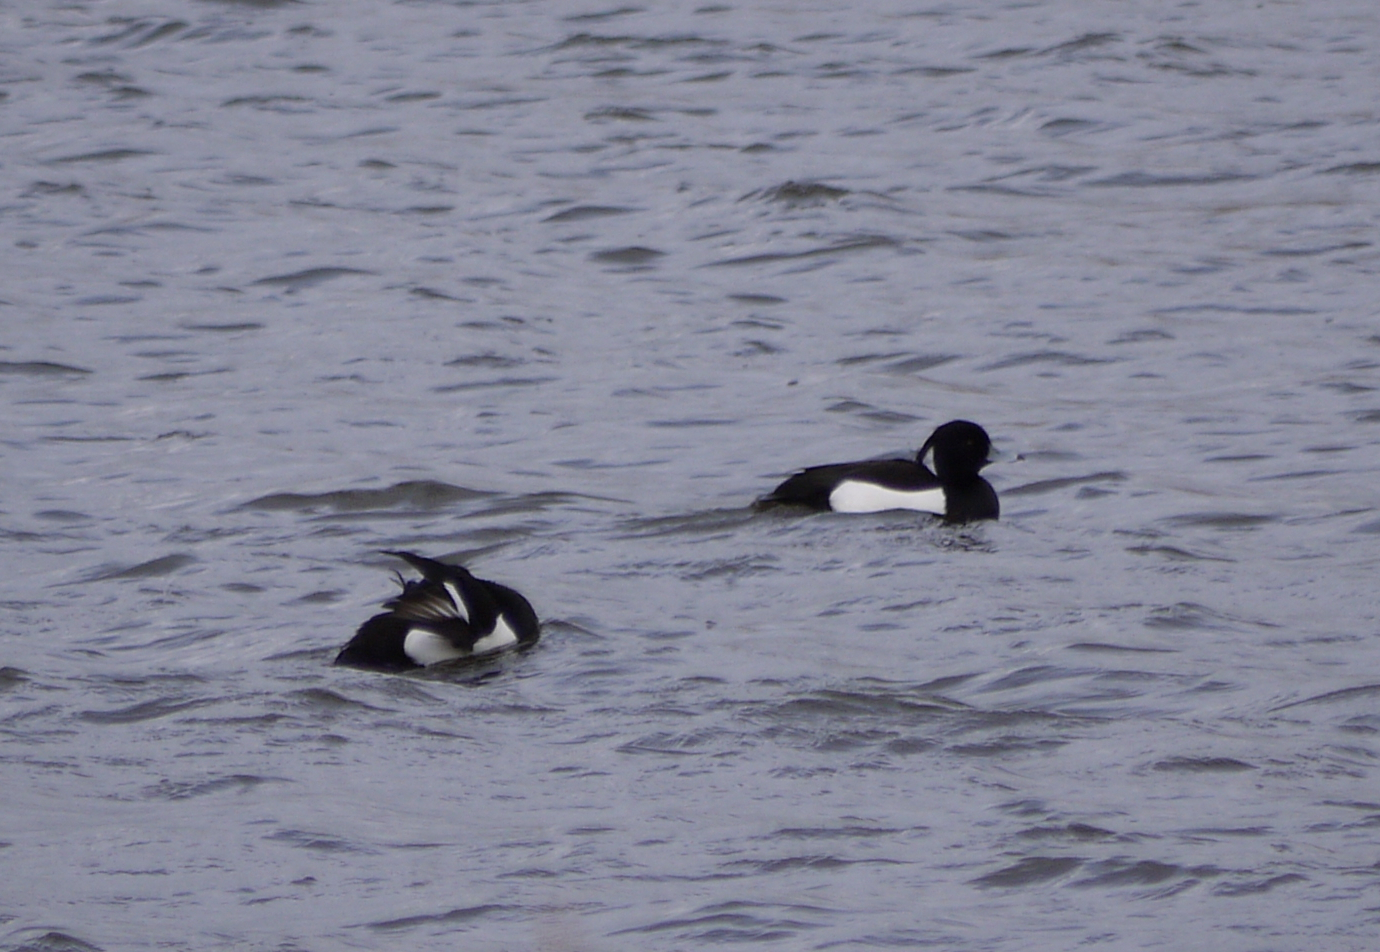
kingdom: Animalia
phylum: Chordata
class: Aves
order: Anseriformes
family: Anatidae
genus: Aythya
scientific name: Aythya fuligula
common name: Tufted duck
